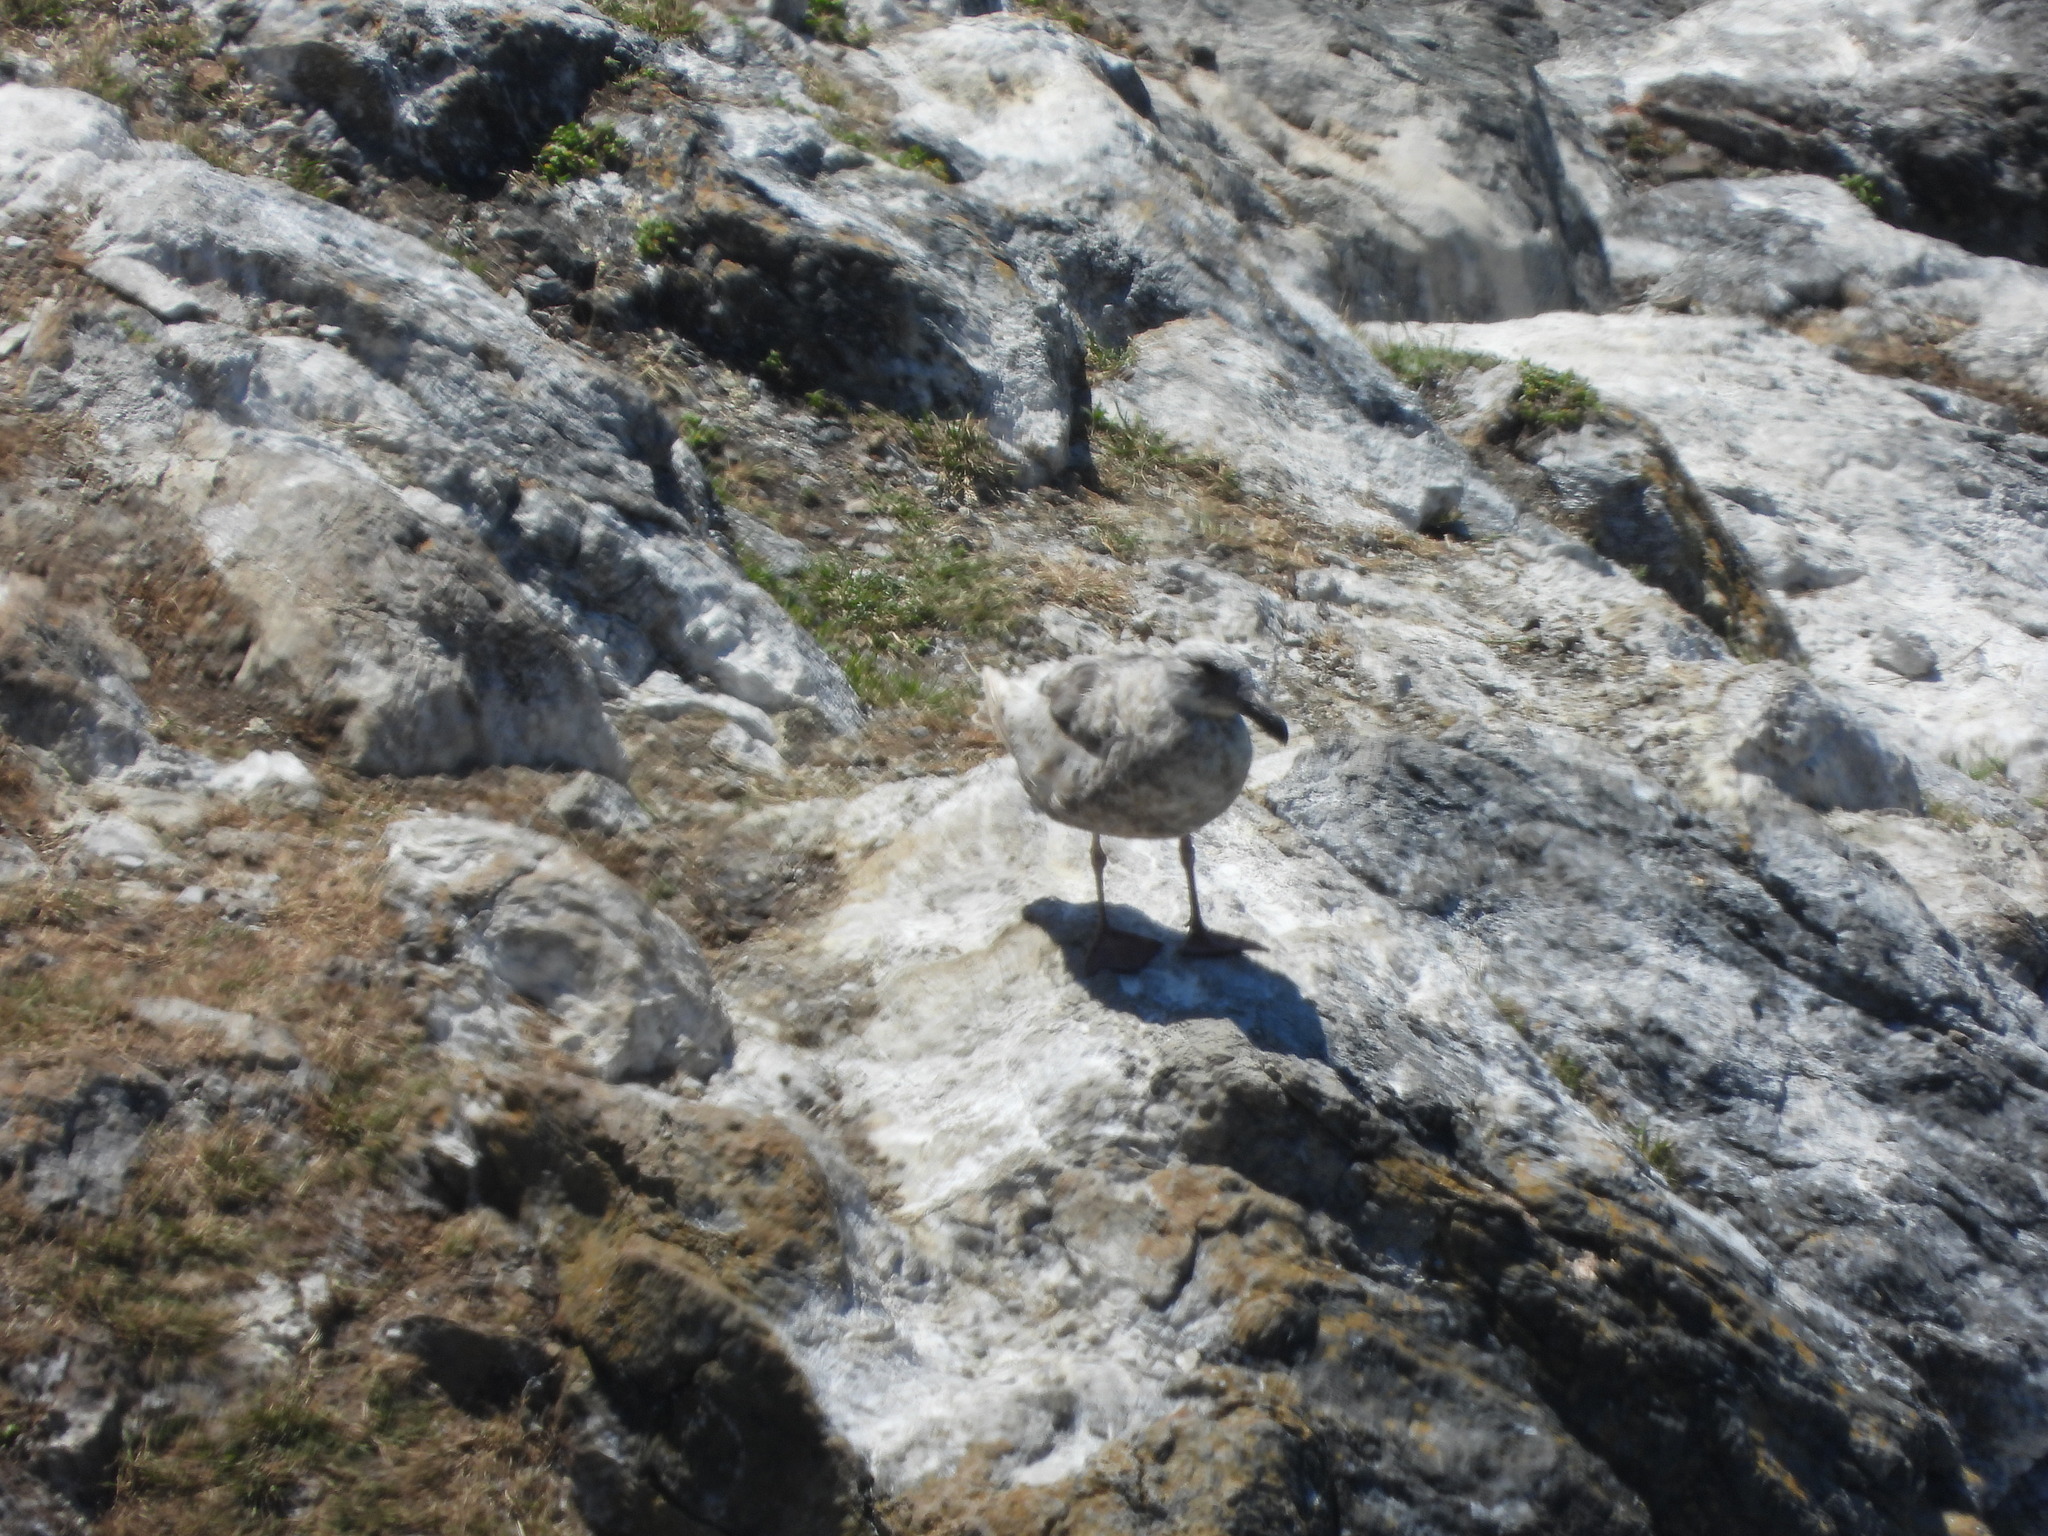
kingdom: Animalia
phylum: Chordata
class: Aves
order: Charadriiformes
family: Laridae
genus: Larus
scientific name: Larus glaucescens
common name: Glaucous-winged gull
